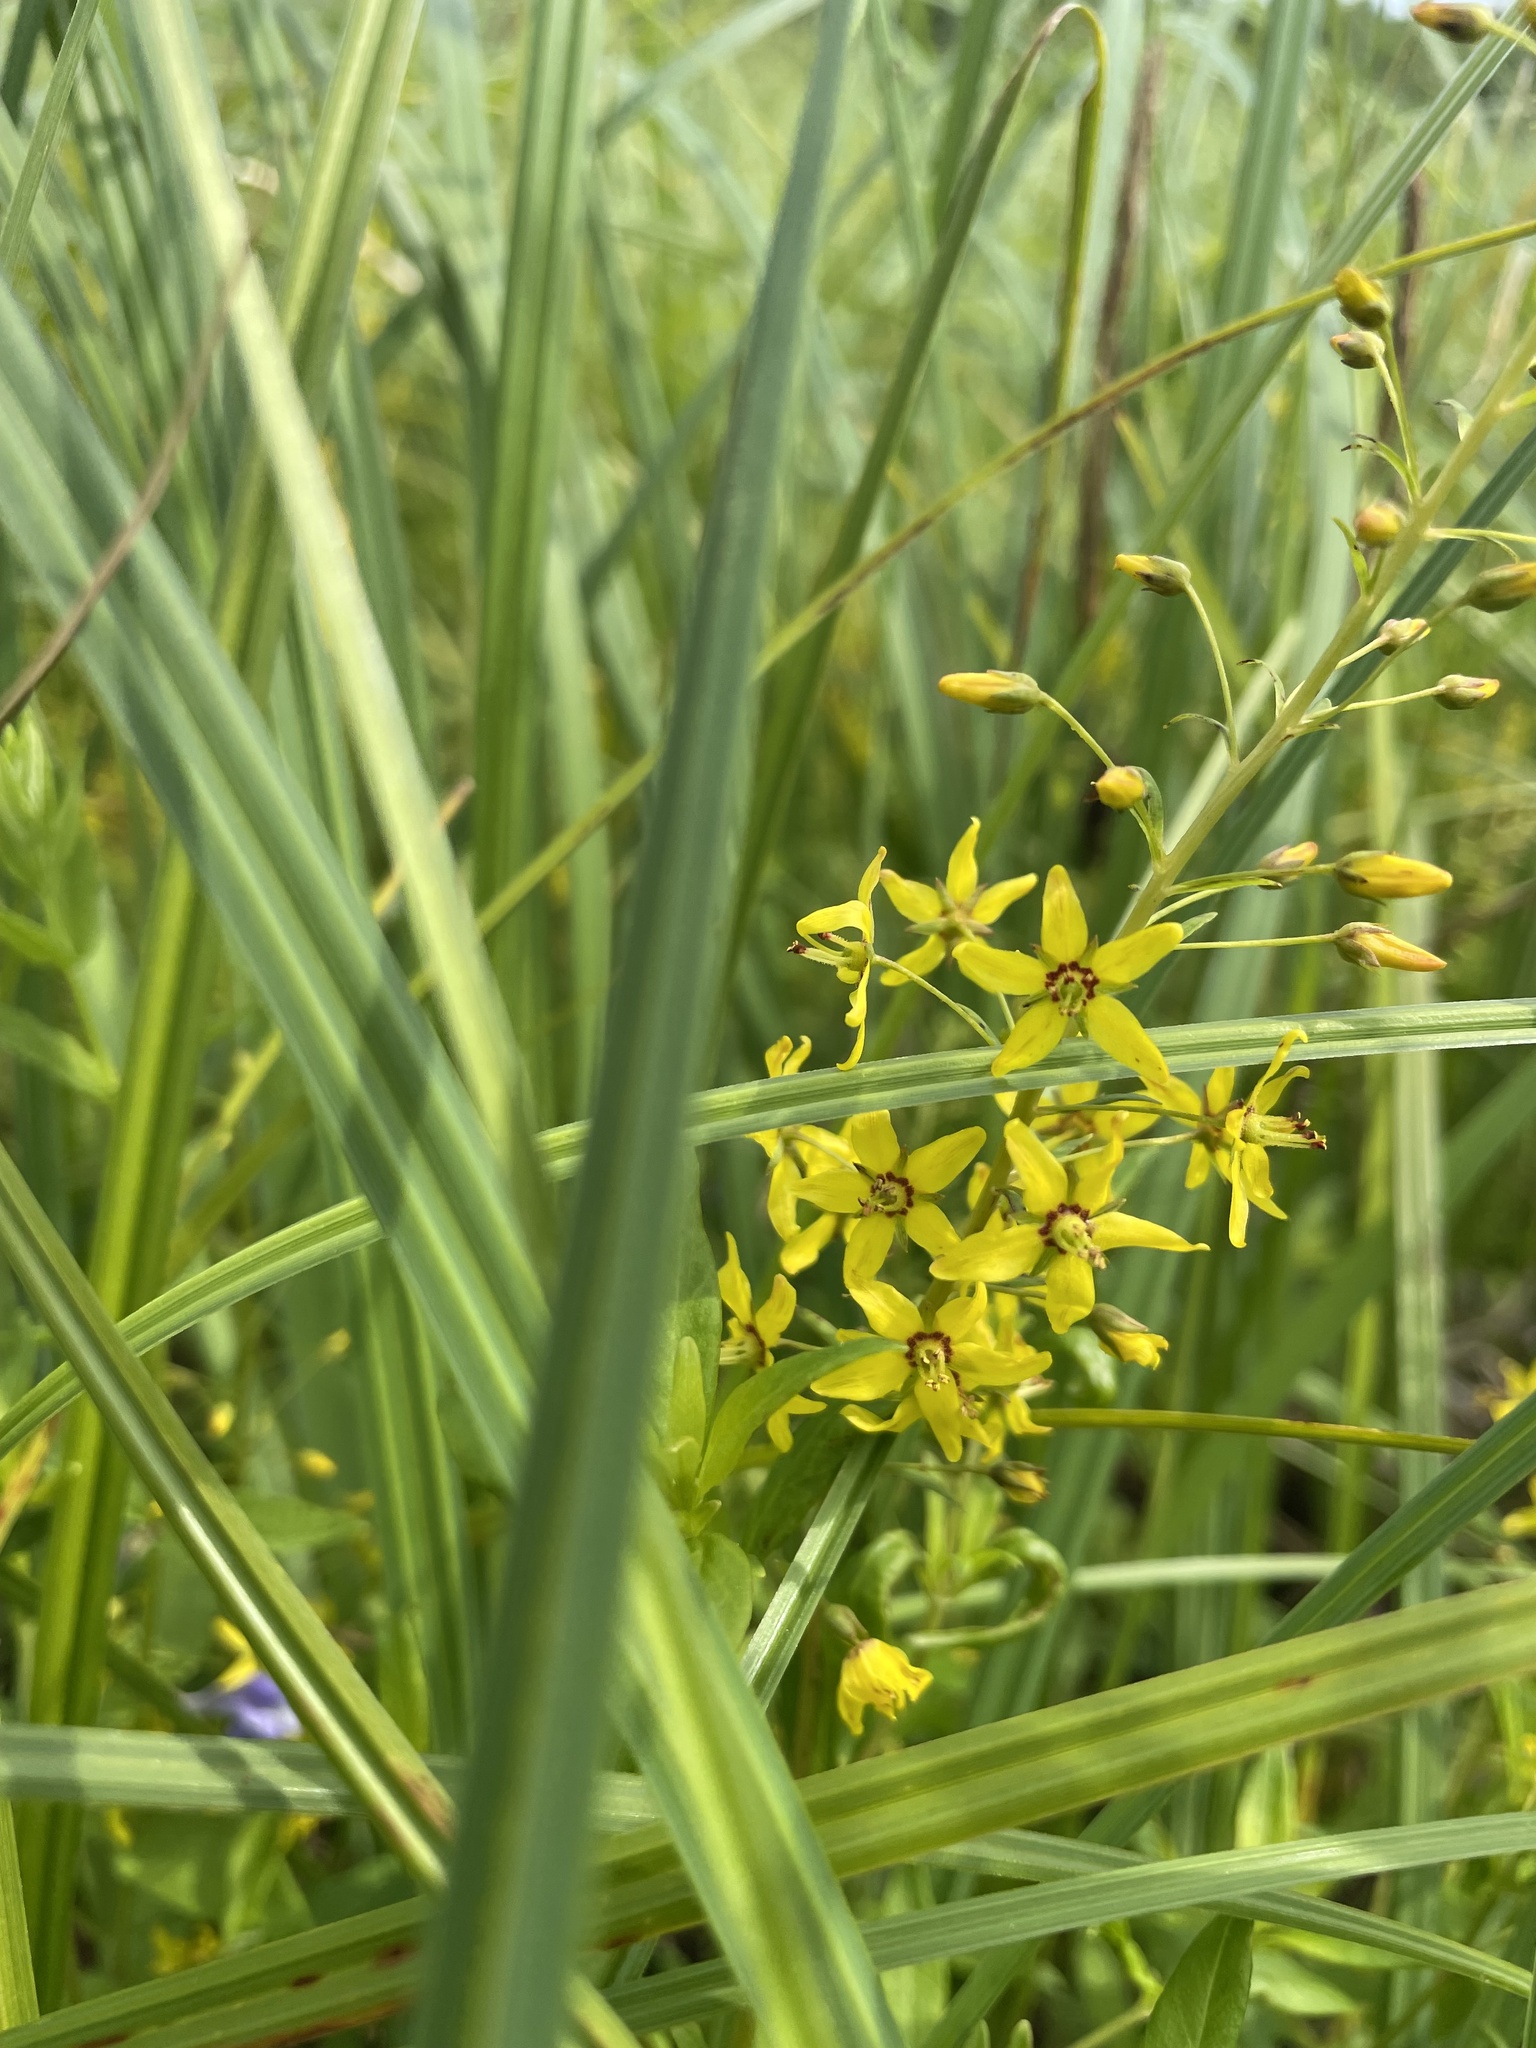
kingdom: Plantae
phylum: Tracheophyta
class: Magnoliopsida
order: Ericales
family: Primulaceae
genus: Lysimachia
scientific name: Lysimachia terrestris
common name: Lake loosestrife
